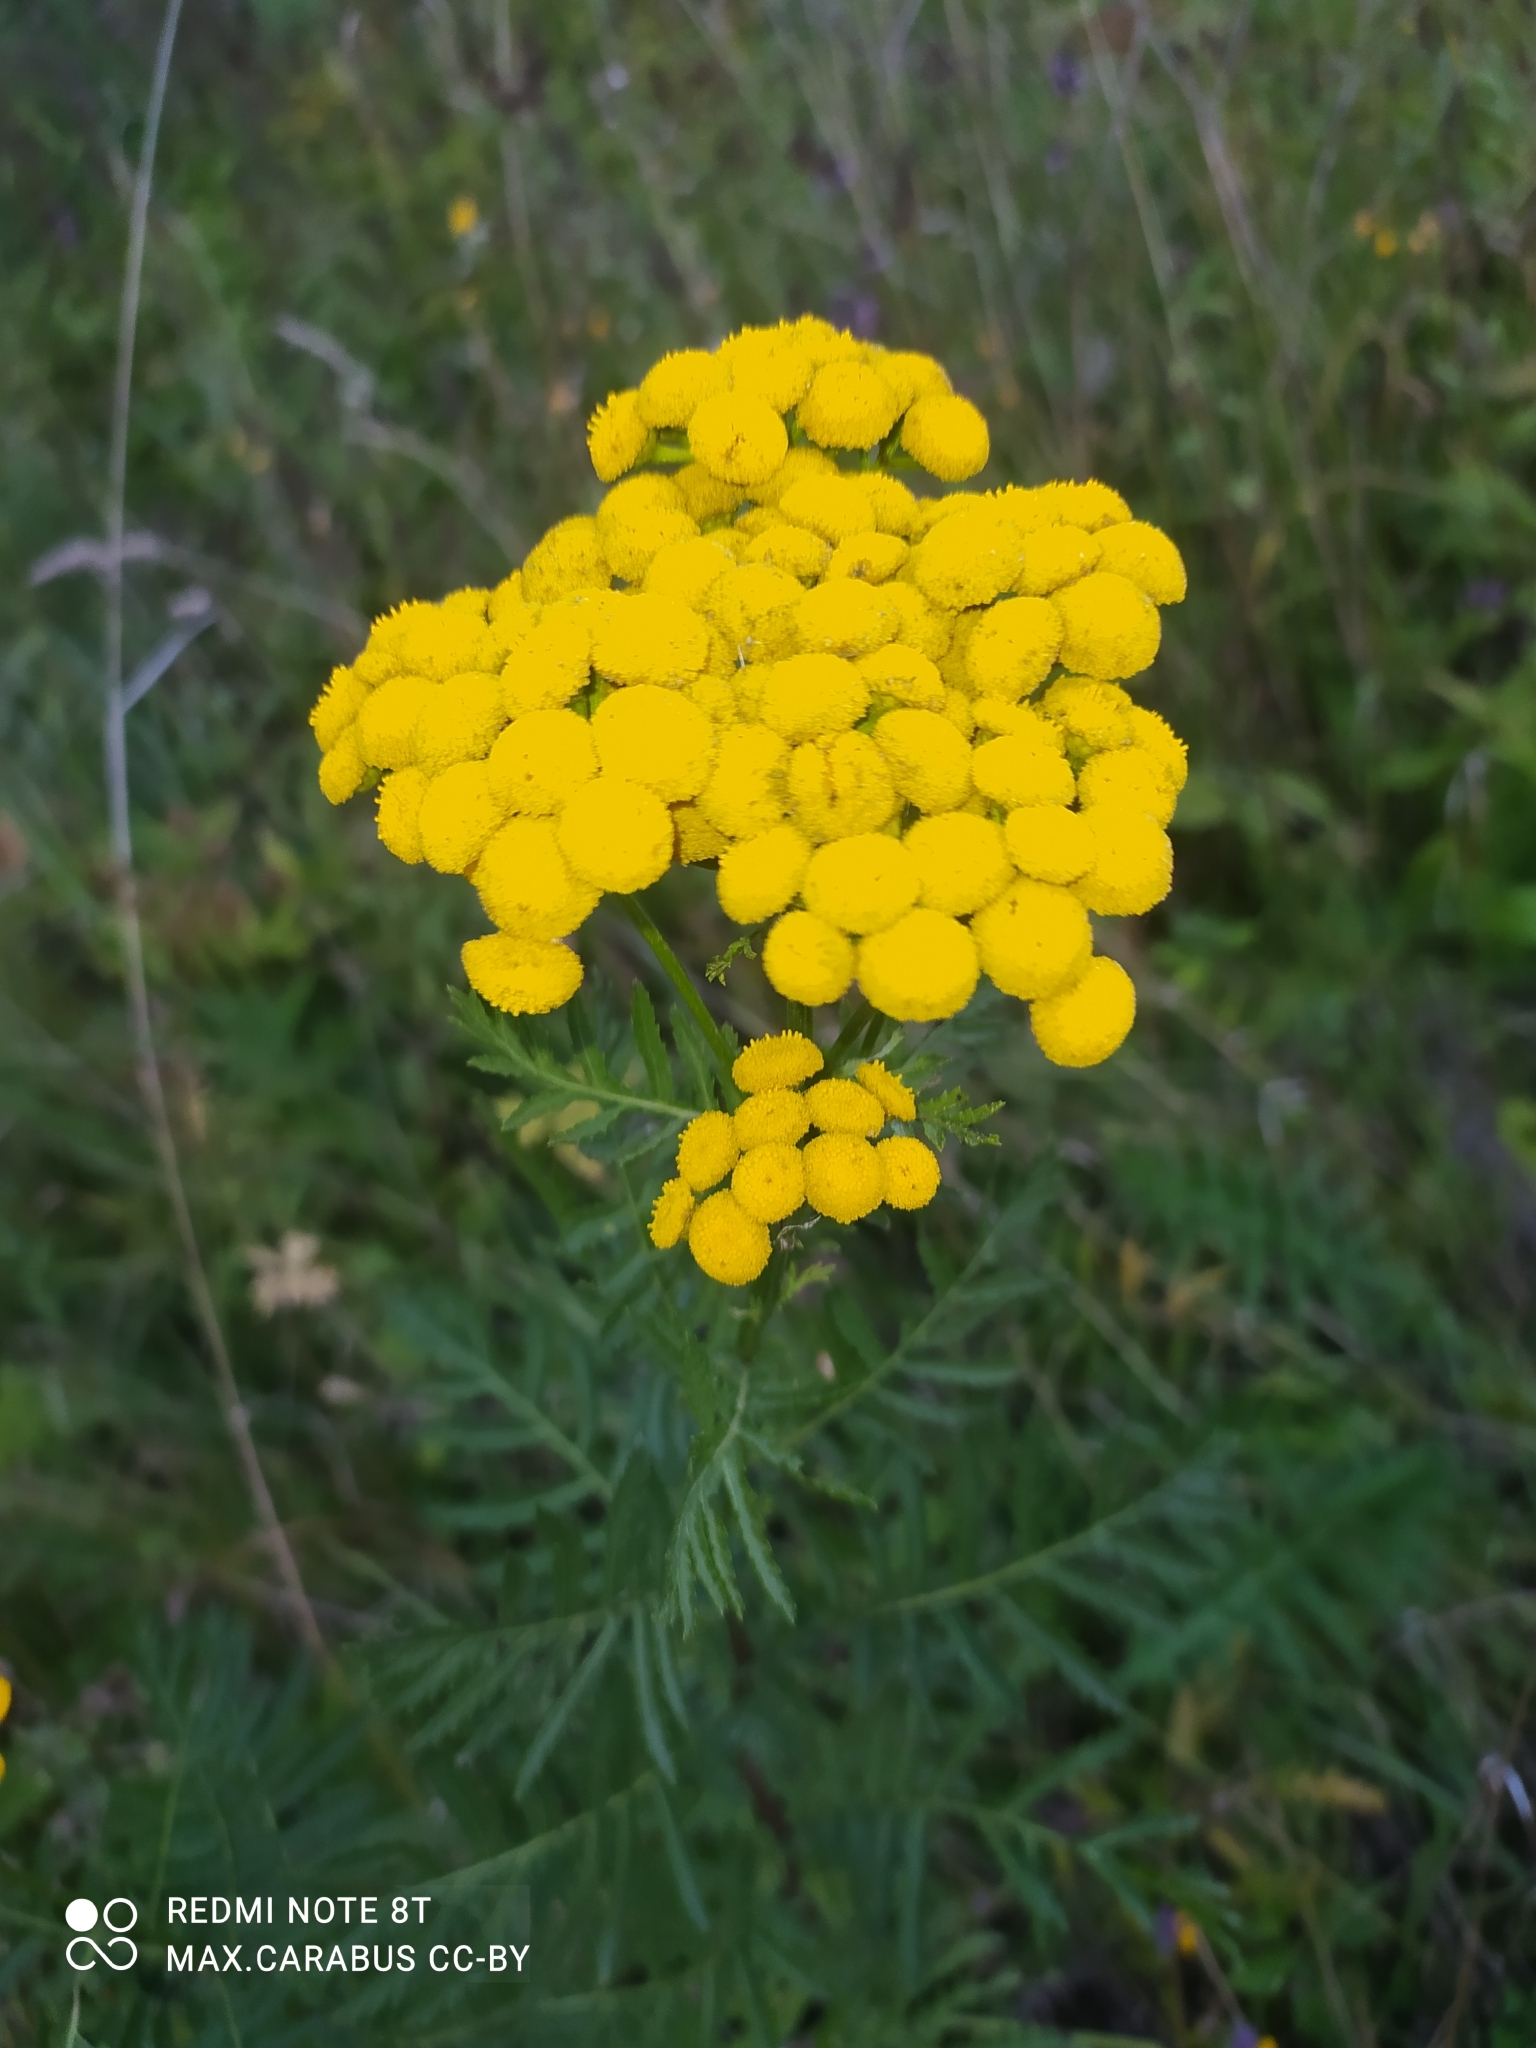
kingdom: Plantae
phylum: Tracheophyta
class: Magnoliopsida
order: Asterales
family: Asteraceae
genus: Tanacetum
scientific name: Tanacetum vulgare
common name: Common tansy
